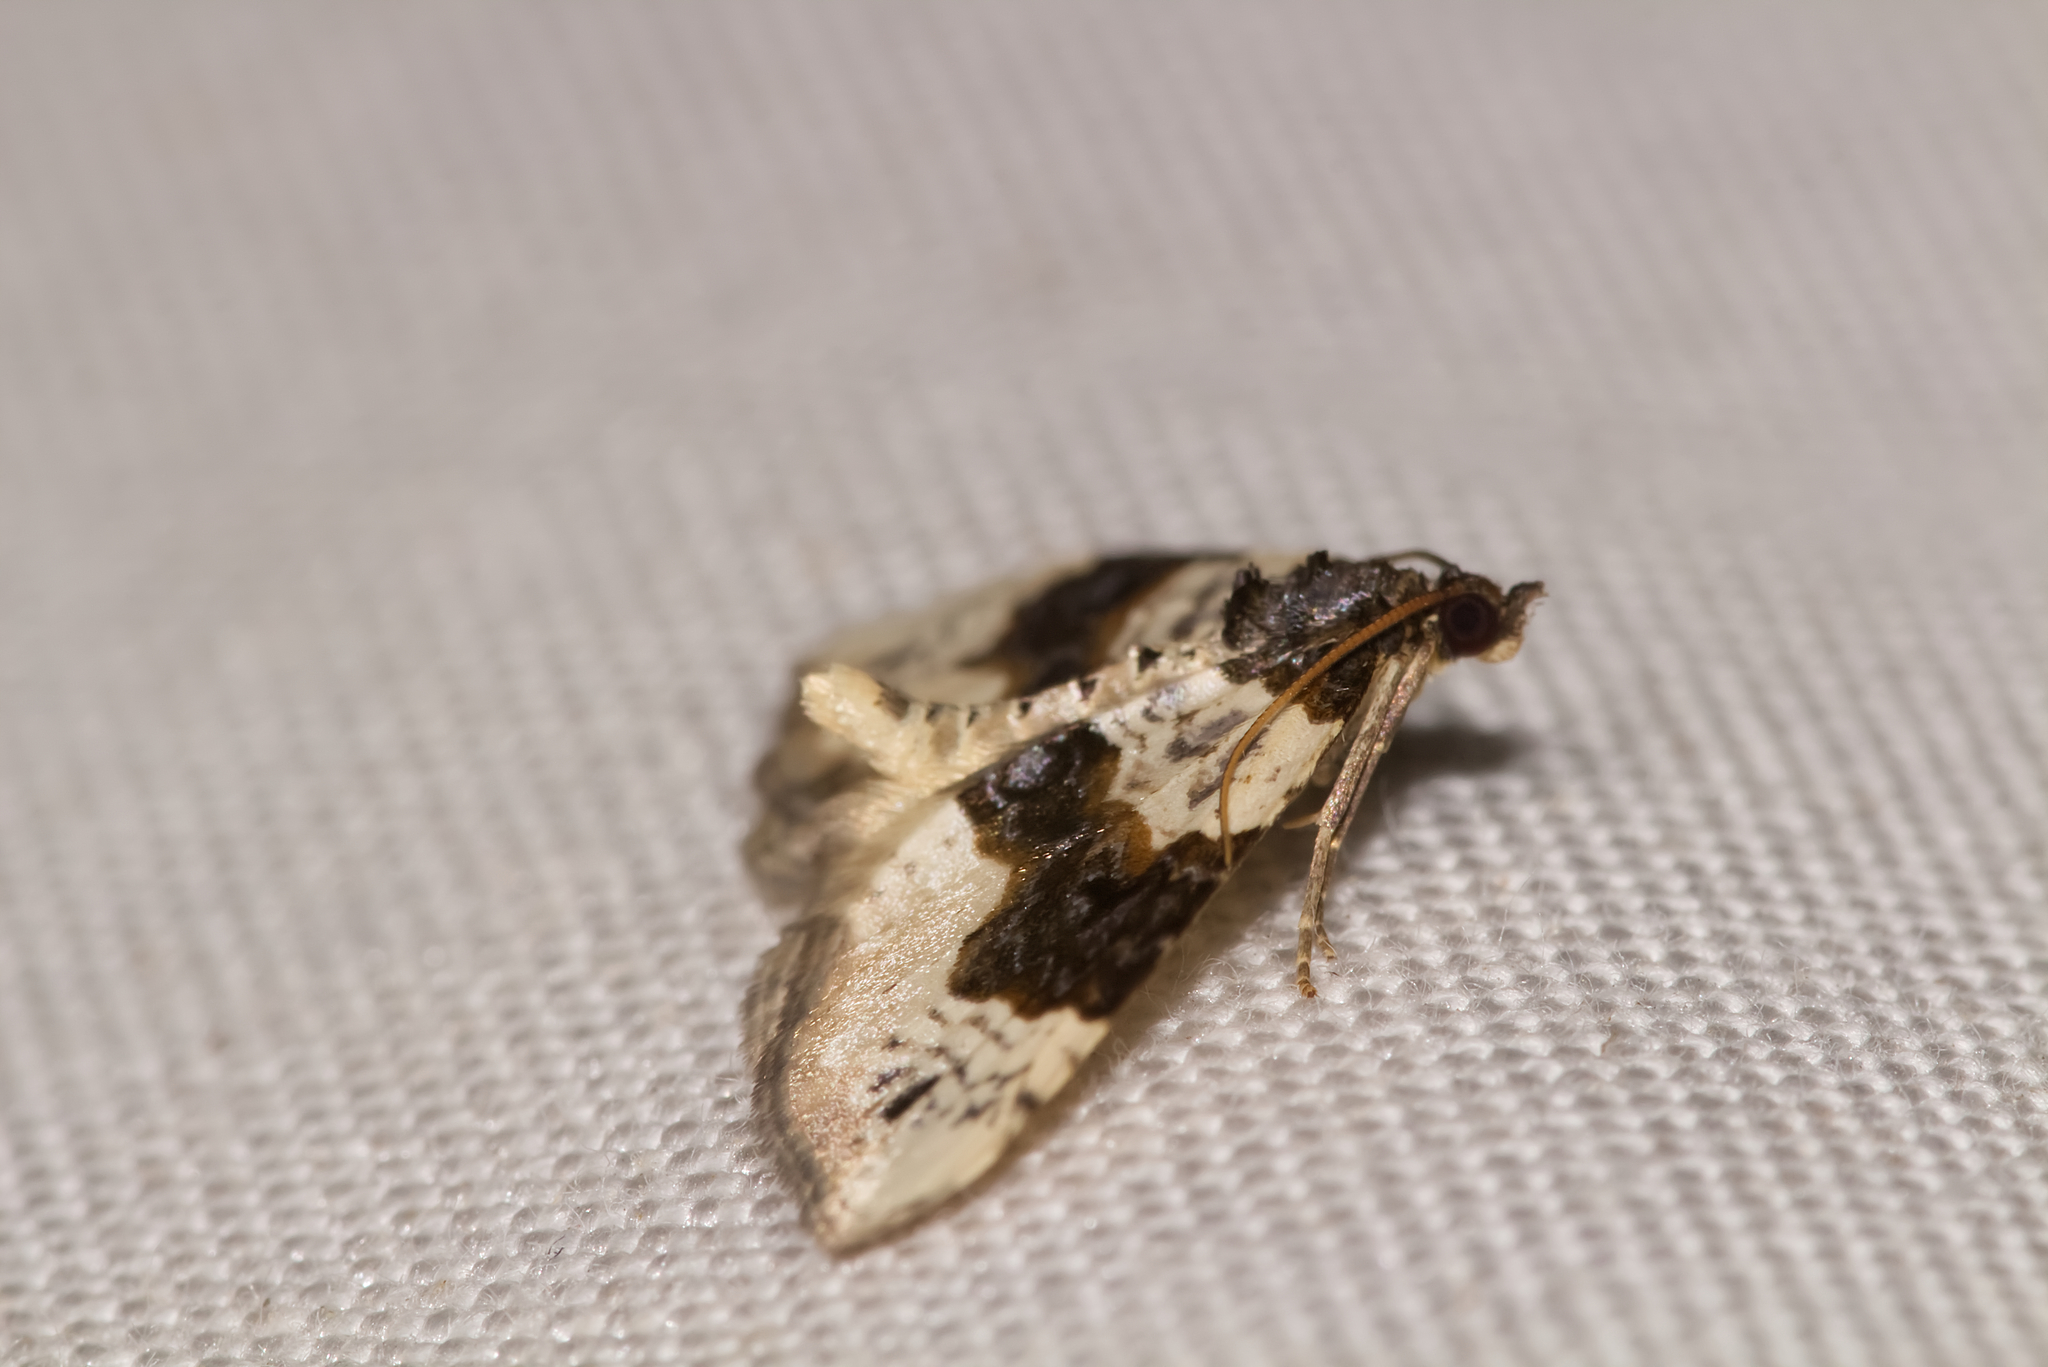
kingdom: Animalia
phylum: Arthropoda
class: Insecta
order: Lepidoptera
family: Geometridae
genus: Cosmorhoe
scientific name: Cosmorhoe ocellata
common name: Purple bar
